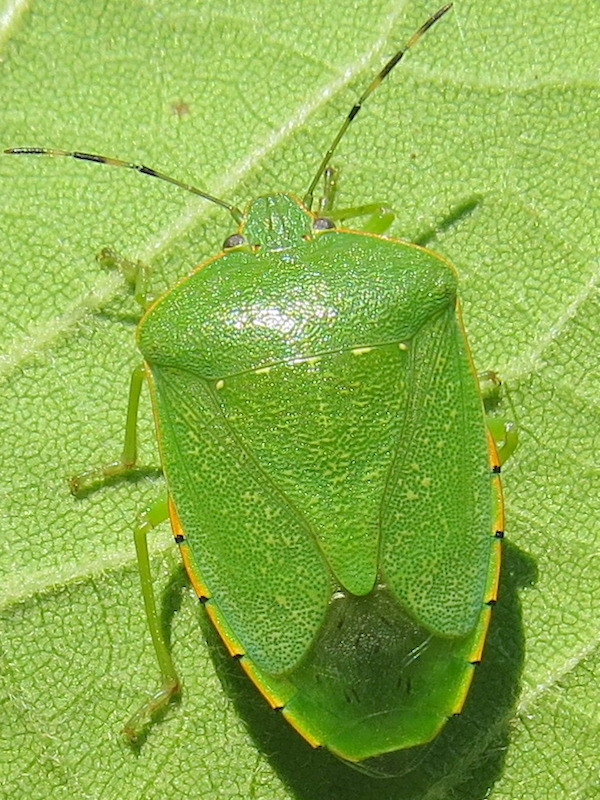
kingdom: Animalia
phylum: Arthropoda
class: Insecta
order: Hemiptera
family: Pentatomidae
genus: Chinavia
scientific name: Chinavia hilaris
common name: Green stink bug
